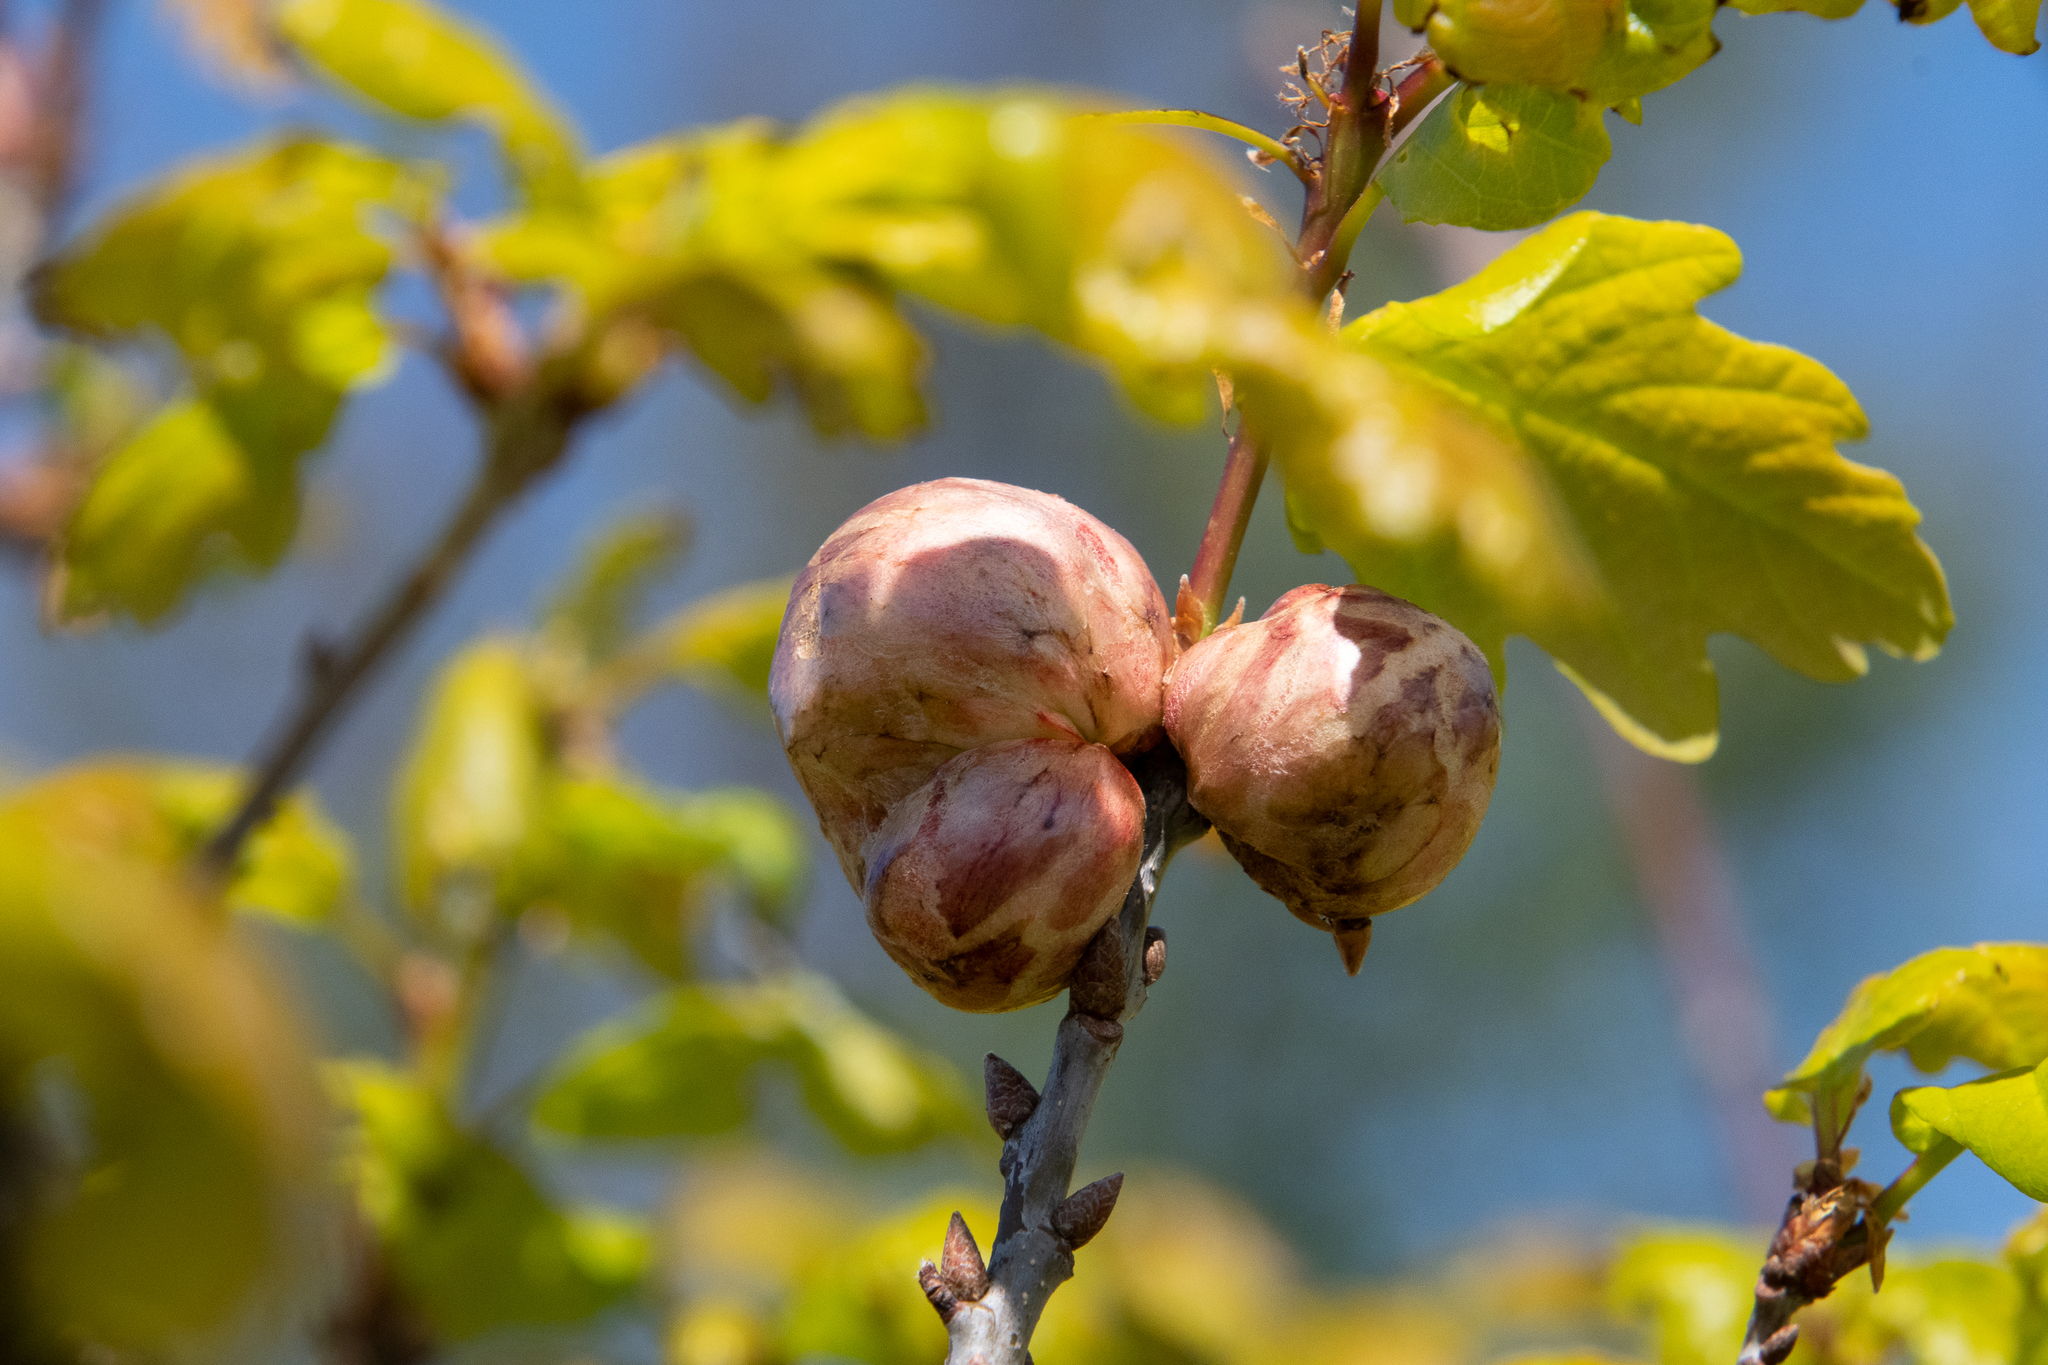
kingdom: Animalia
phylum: Arthropoda
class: Insecta
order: Hymenoptera
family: Cynipidae
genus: Biorhiza
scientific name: Biorhiza pallida
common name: Oak apple
